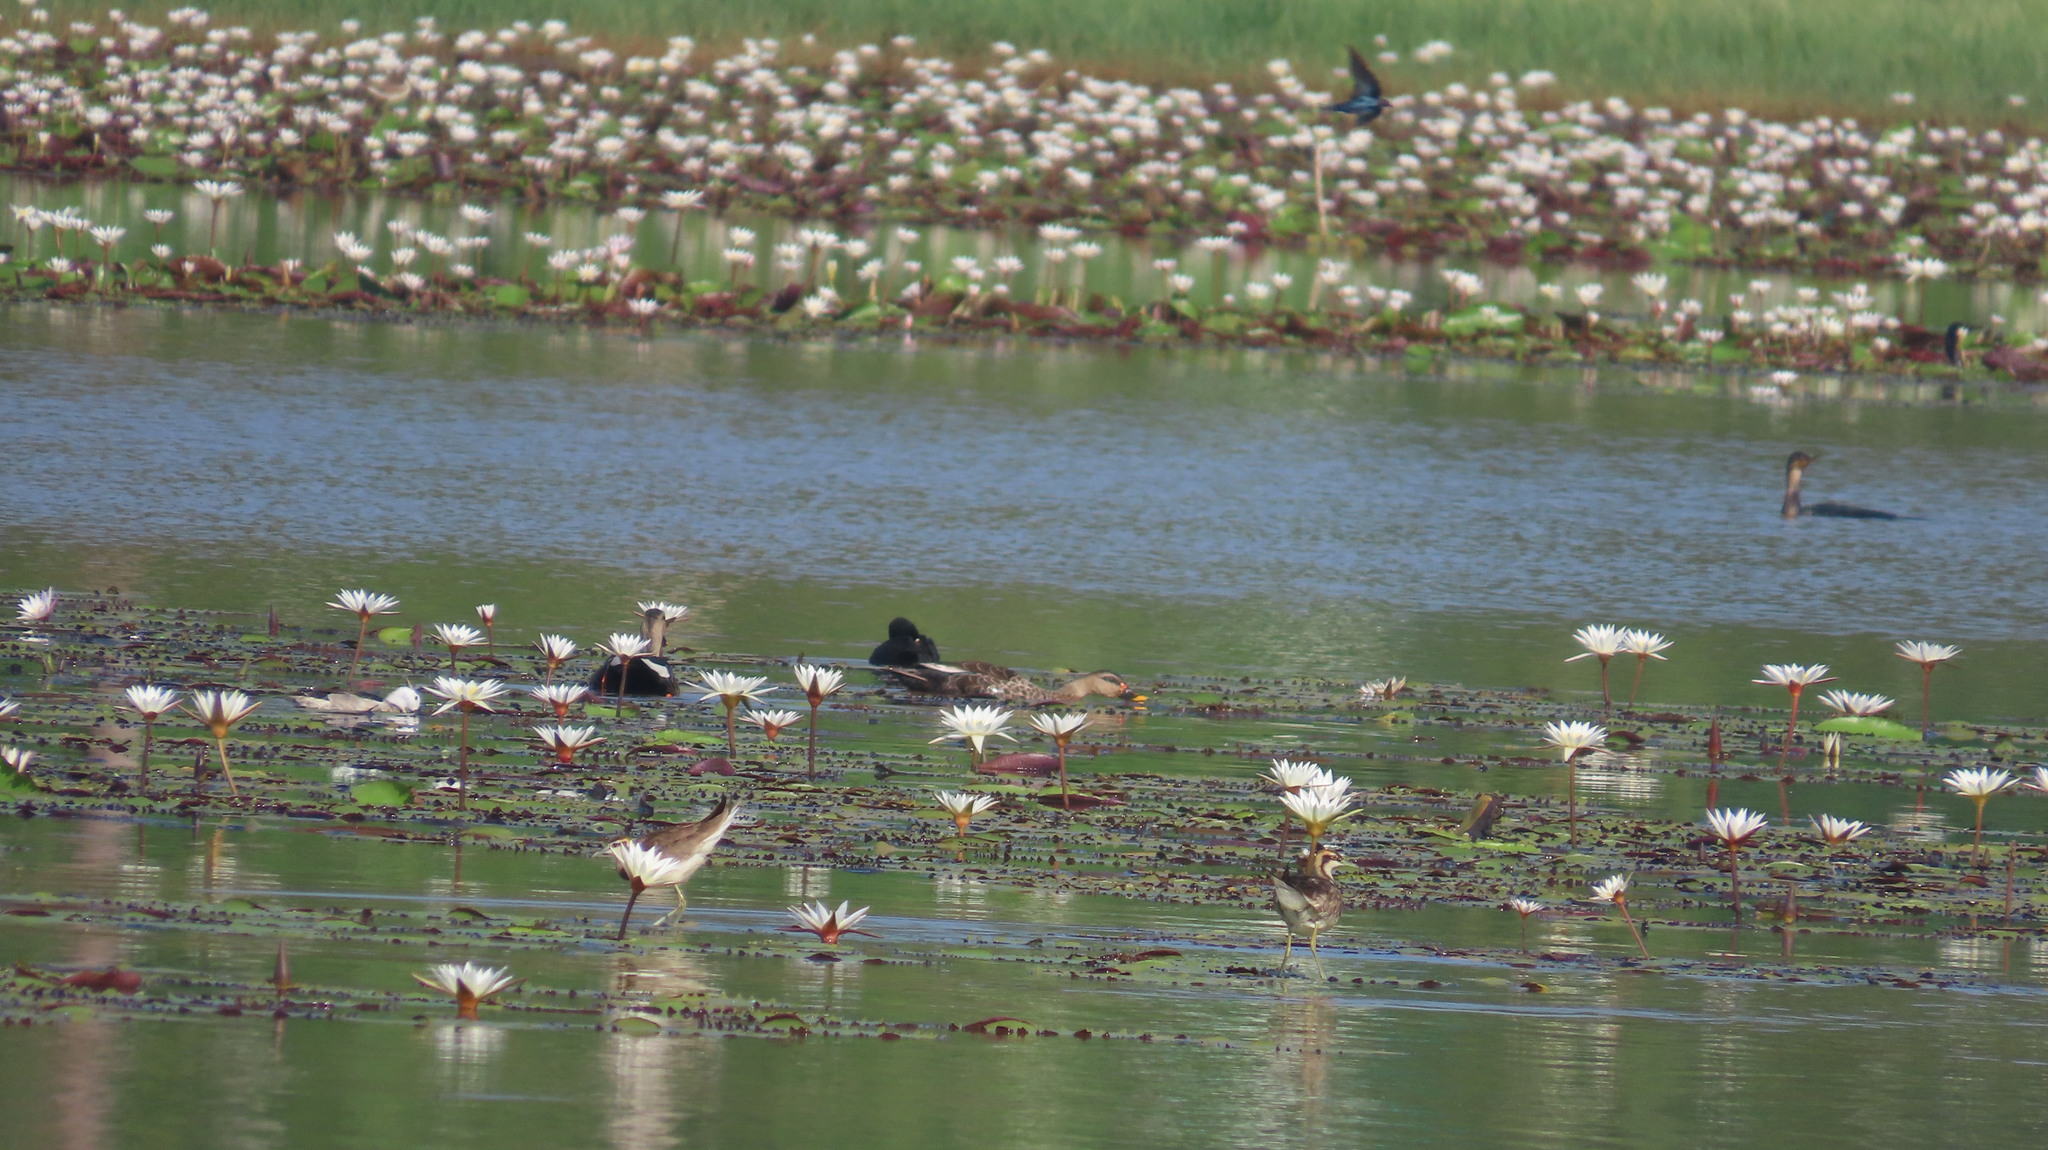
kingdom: Animalia
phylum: Chordata
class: Aves
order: Anseriformes
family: Anatidae
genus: Anas
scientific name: Anas poecilorhyncha
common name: Indian spot-billed duck
